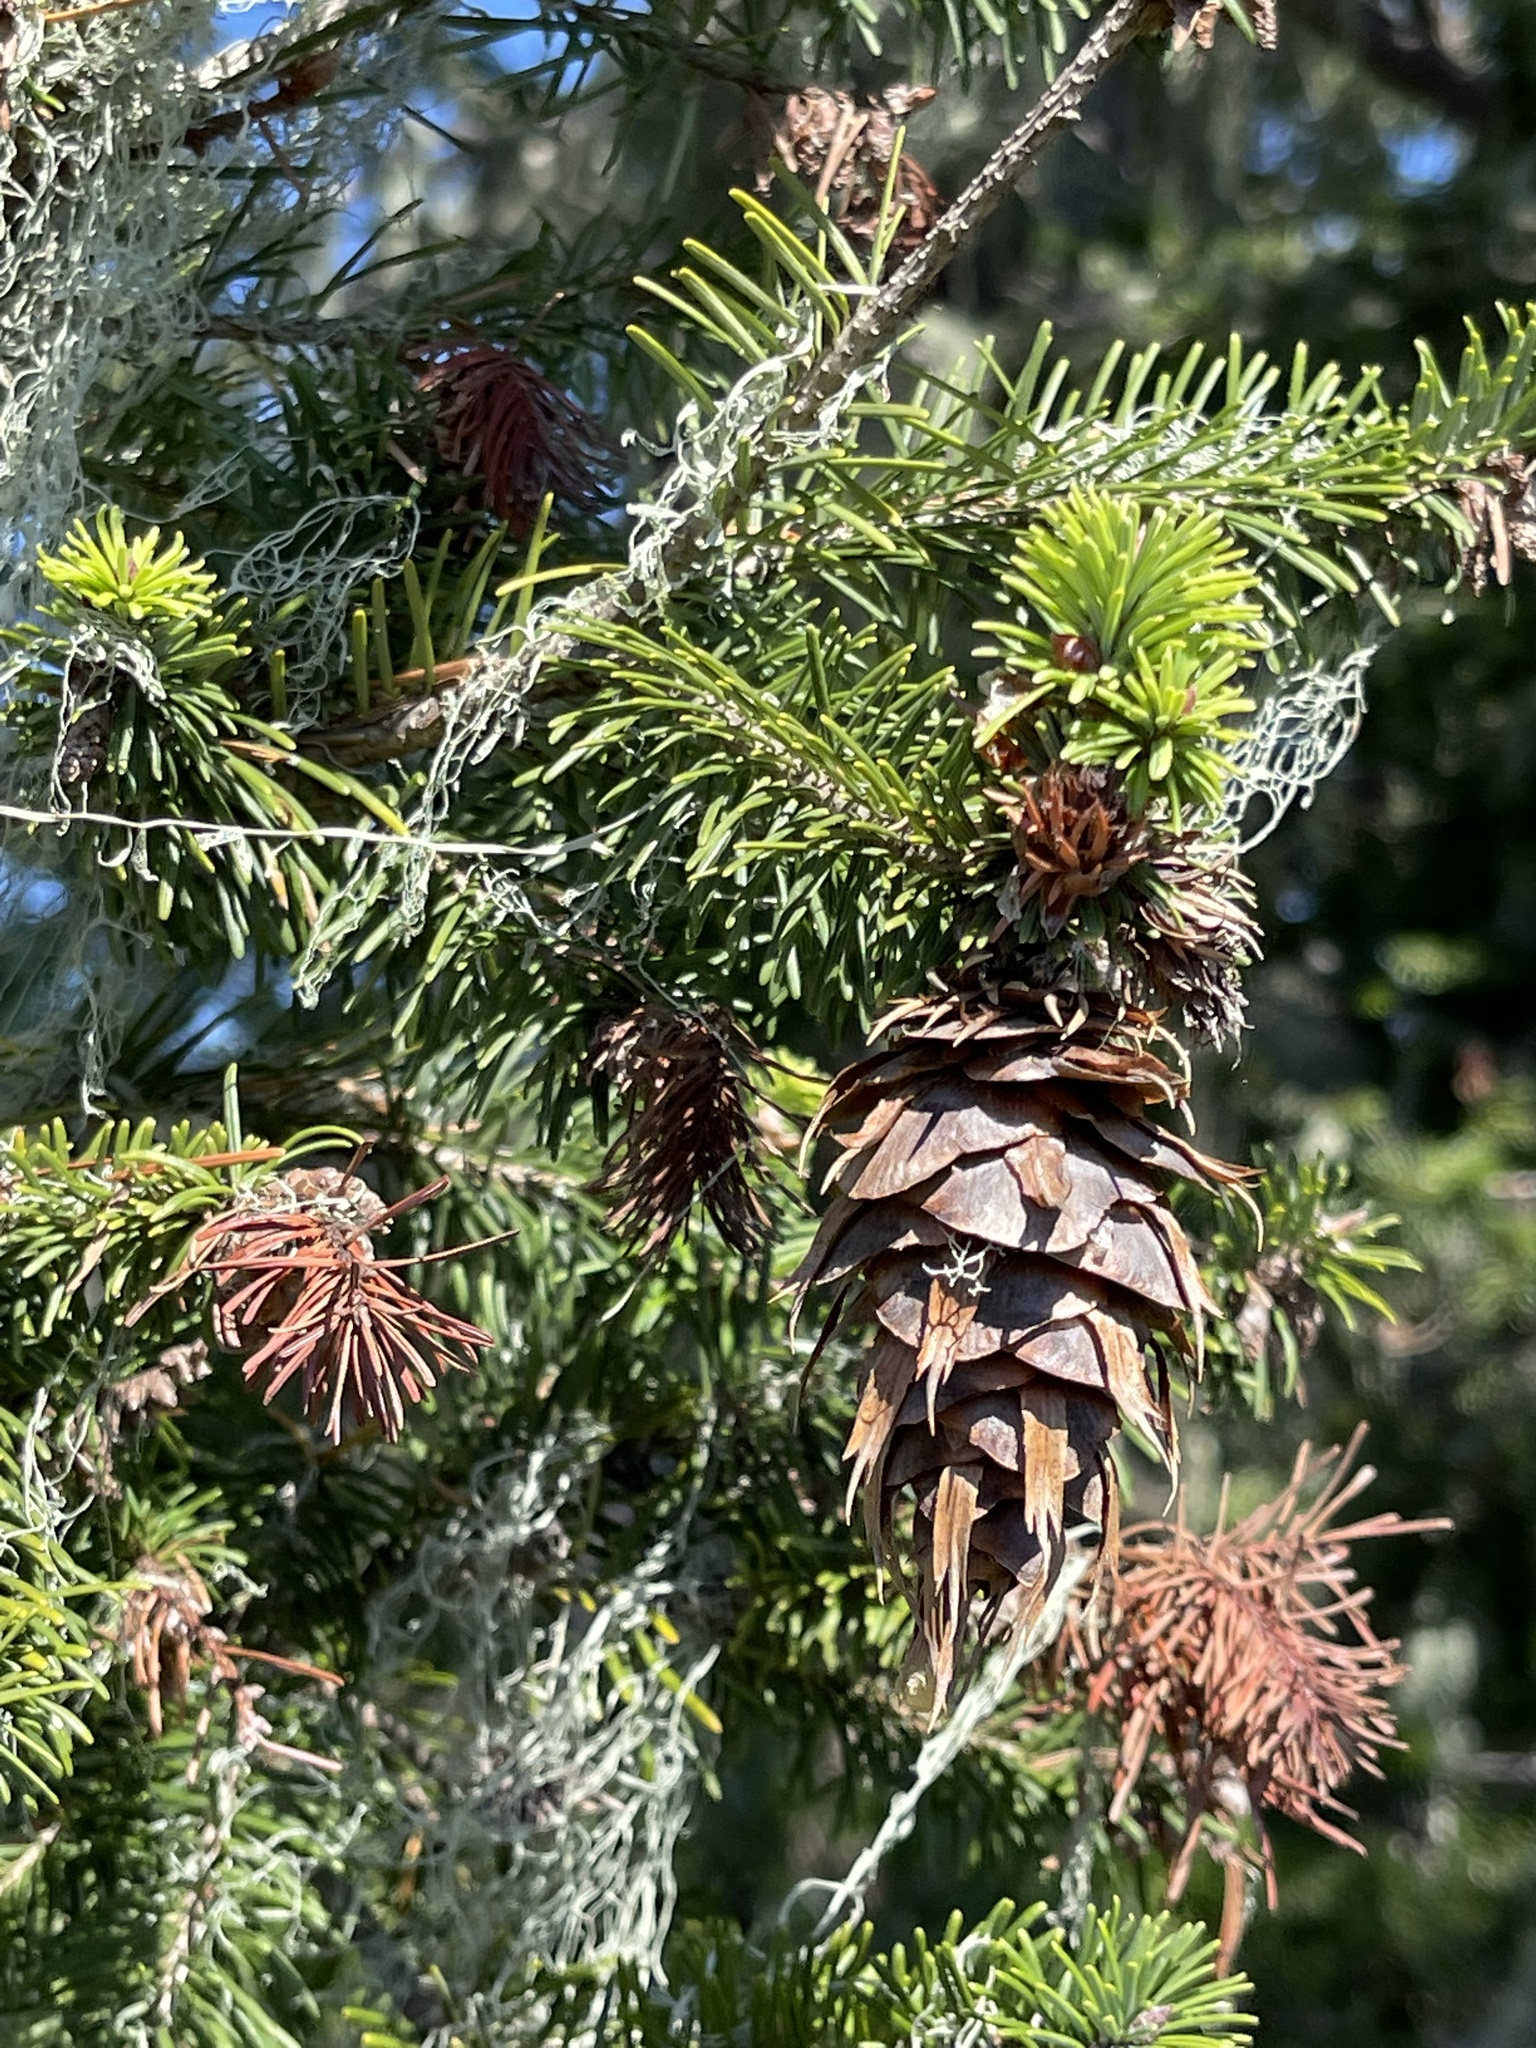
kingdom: Plantae
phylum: Tracheophyta
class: Pinopsida
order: Pinales
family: Pinaceae
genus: Pseudotsuga
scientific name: Pseudotsuga menziesii
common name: Douglas fir
